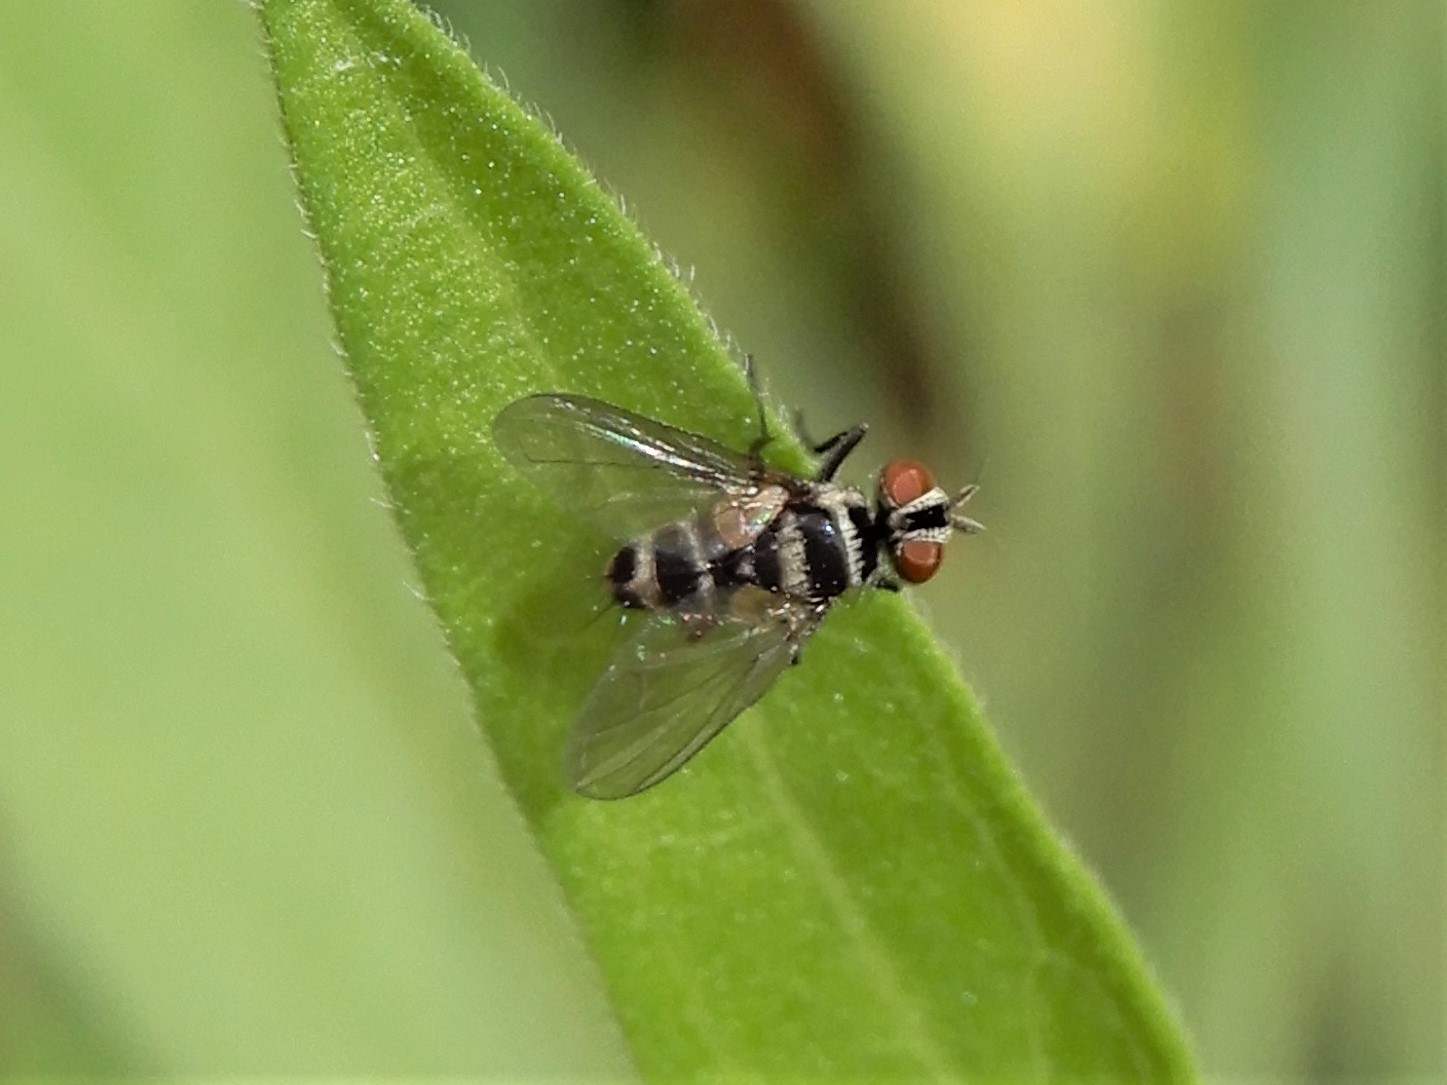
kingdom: Animalia
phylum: Arthropoda
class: Insecta
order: Diptera
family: Tachinidae
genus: Trigonospila
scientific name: Trigonospila brevifacies
